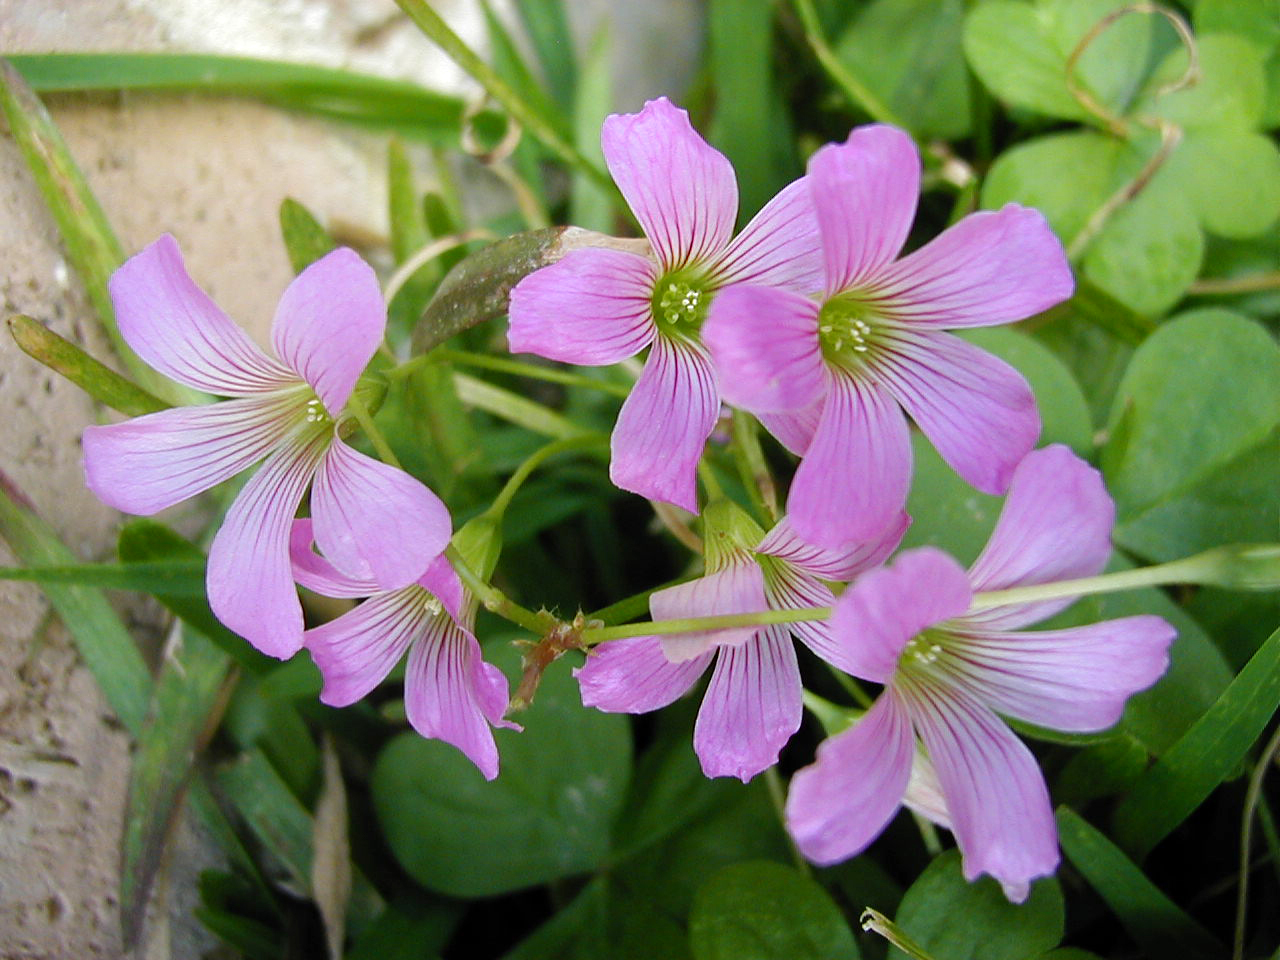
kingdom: Plantae
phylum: Tracheophyta
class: Magnoliopsida
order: Oxalidales
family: Oxalidaceae
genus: Oxalis
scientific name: Oxalis debilis
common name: Large-flowered pink-sorrel
